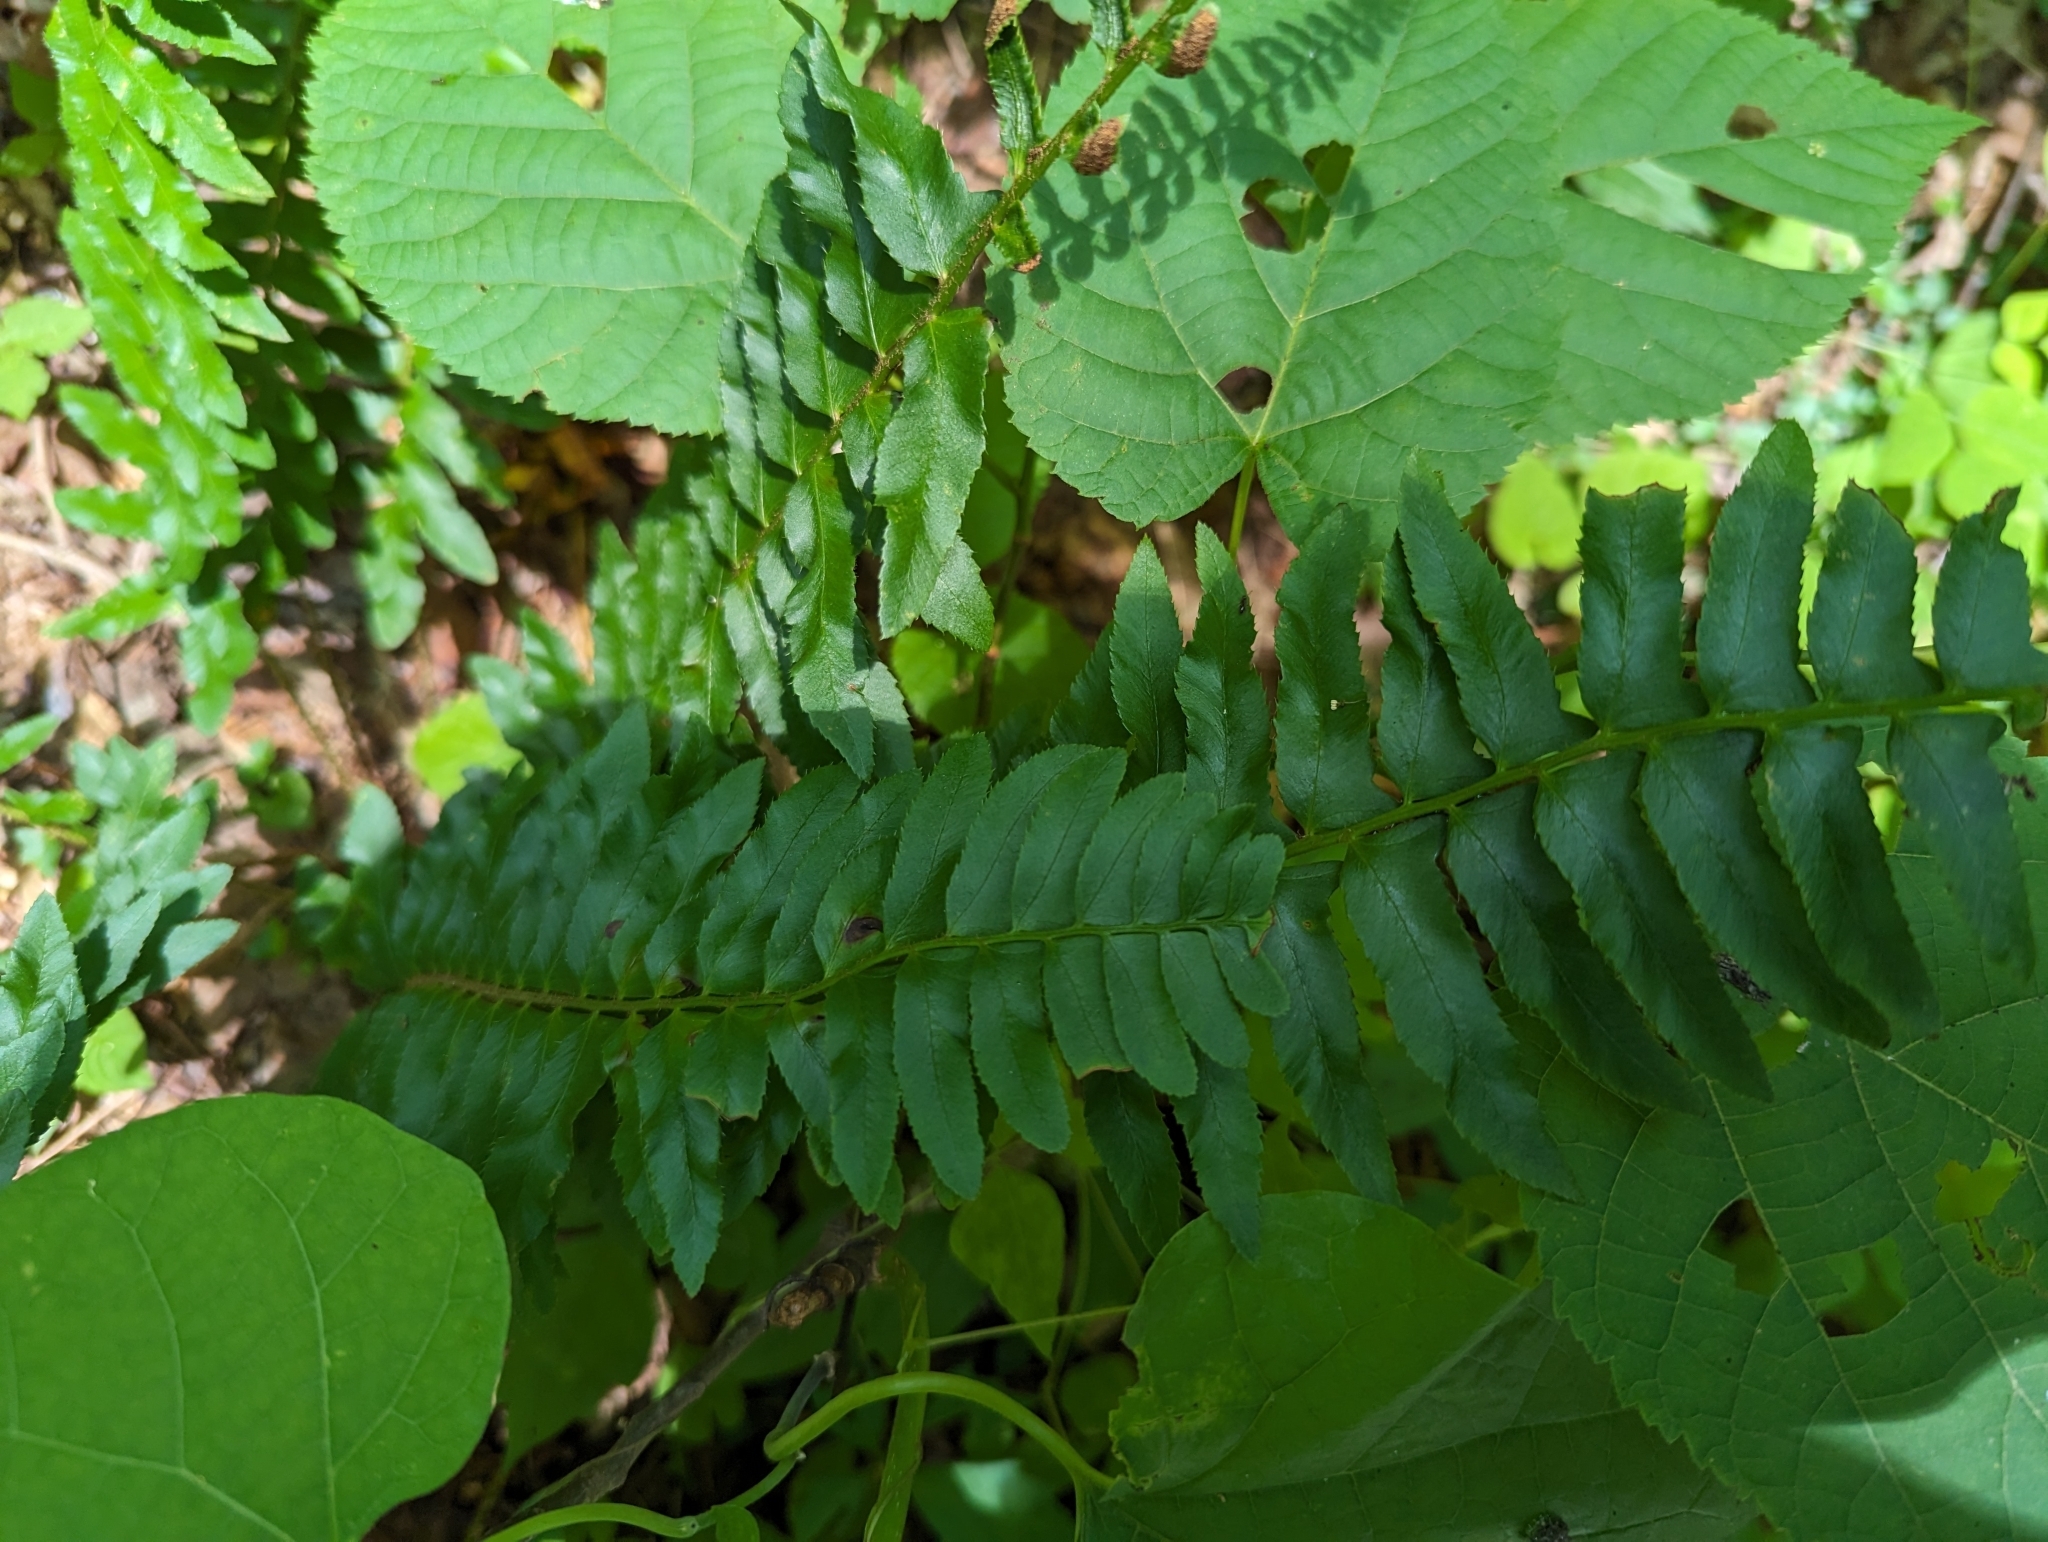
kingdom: Plantae
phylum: Tracheophyta
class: Polypodiopsida
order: Polypodiales
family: Dryopteridaceae
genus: Polystichum
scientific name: Polystichum acrostichoides
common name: Christmas fern
